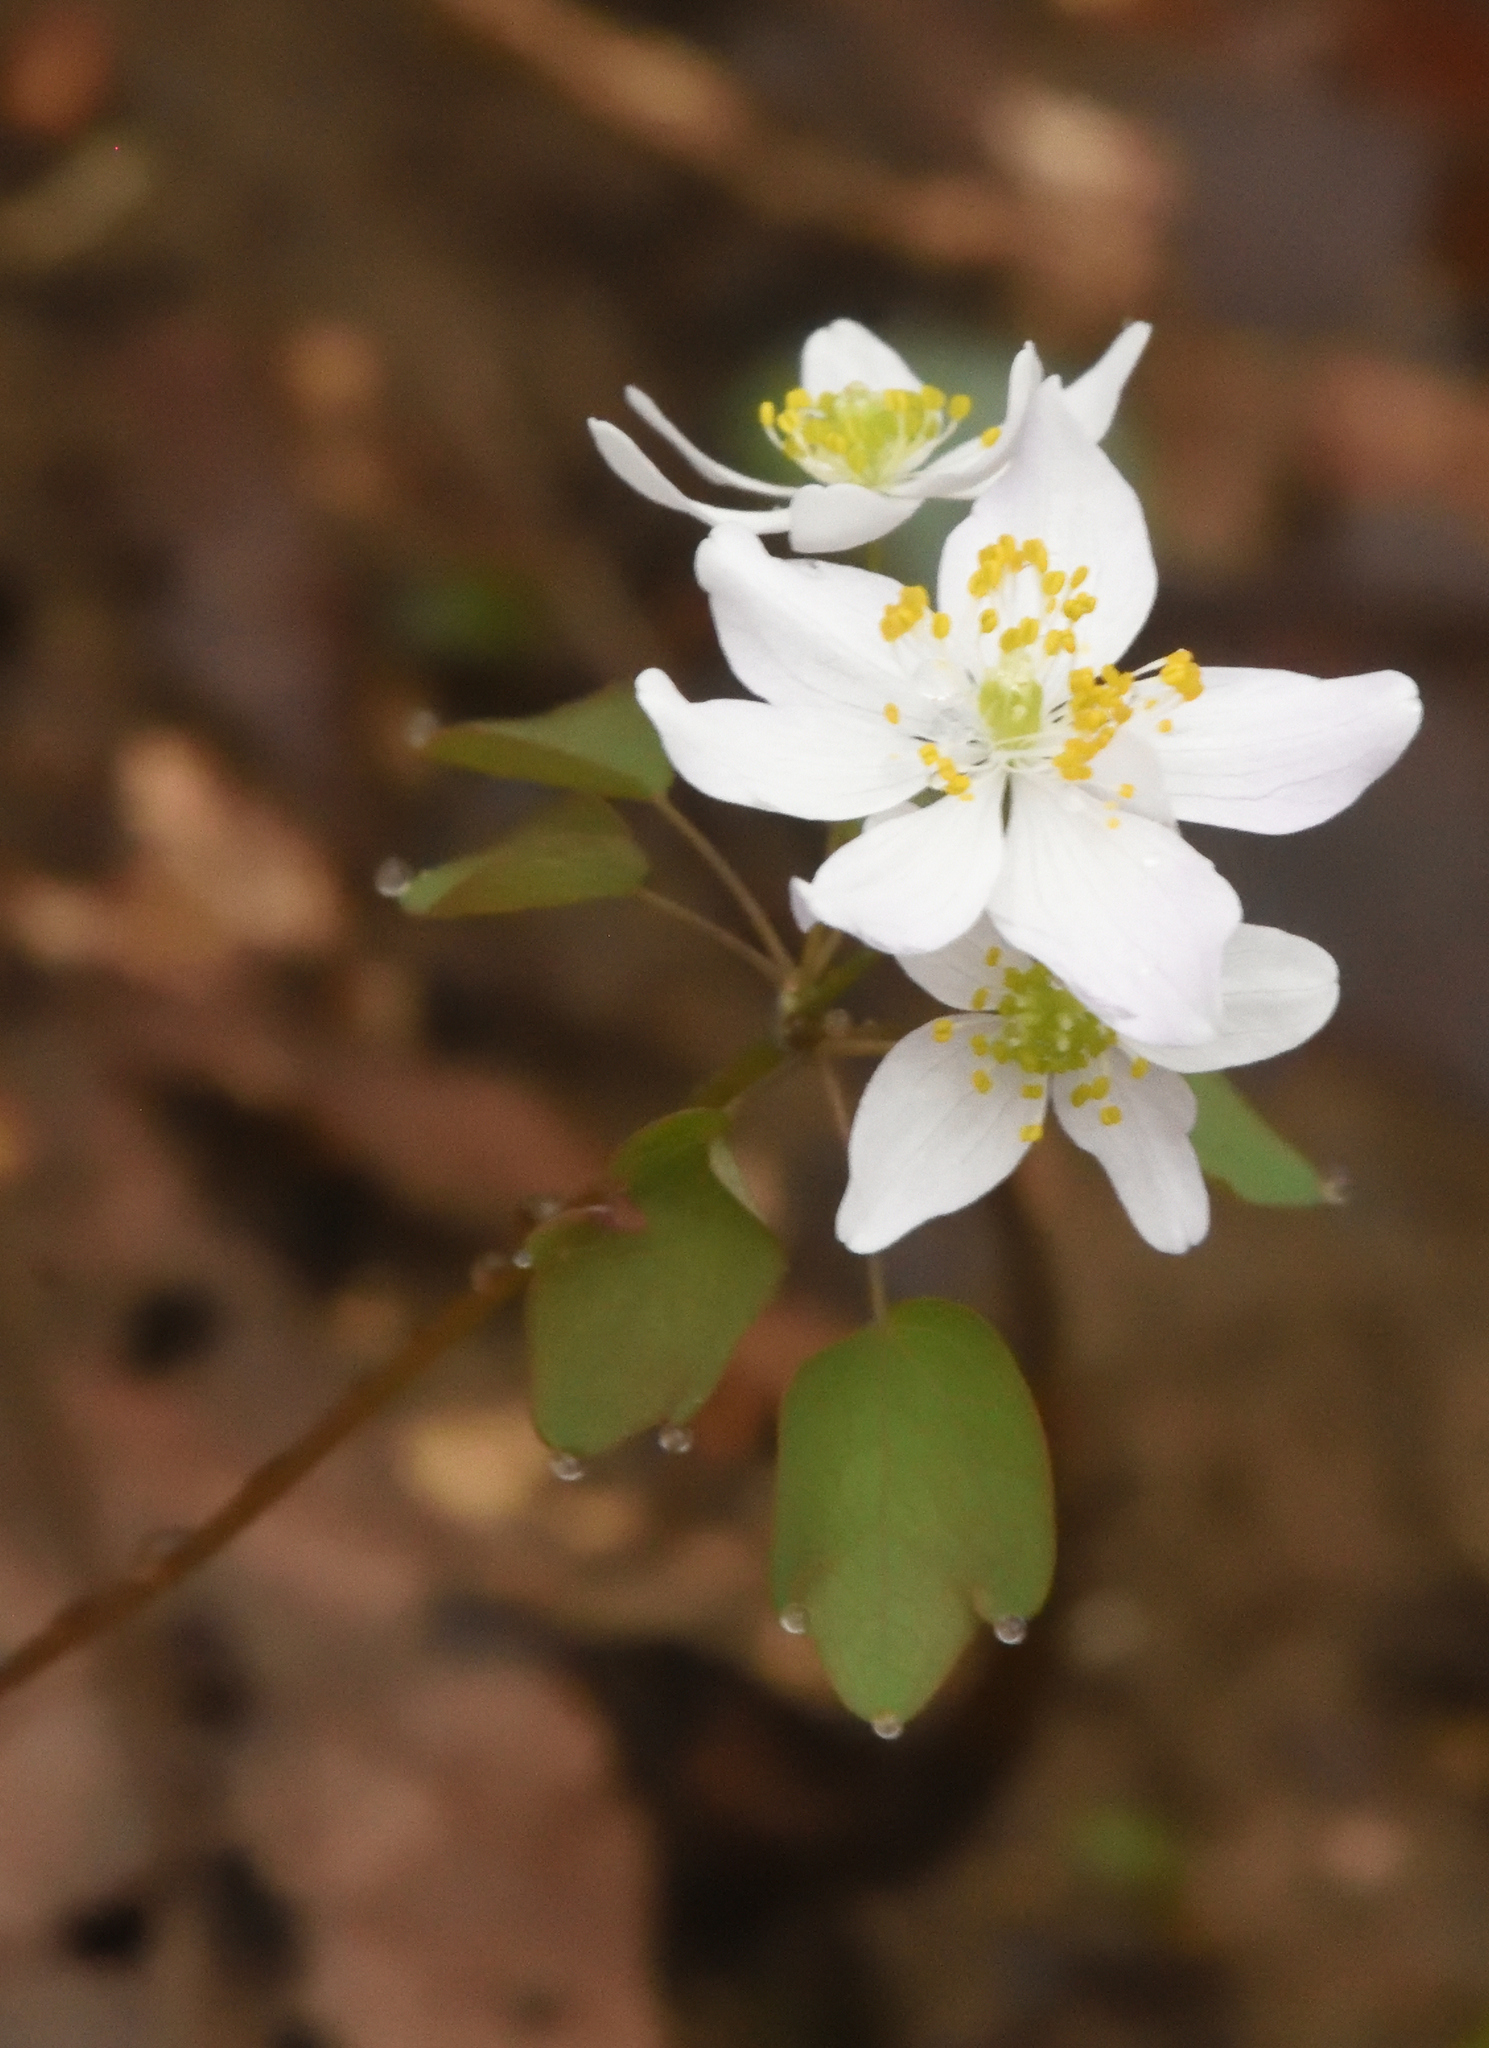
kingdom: Plantae
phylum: Tracheophyta
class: Magnoliopsida
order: Ranunculales
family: Ranunculaceae
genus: Thalictrum
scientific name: Thalictrum thalictroides
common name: Rue-anemone
